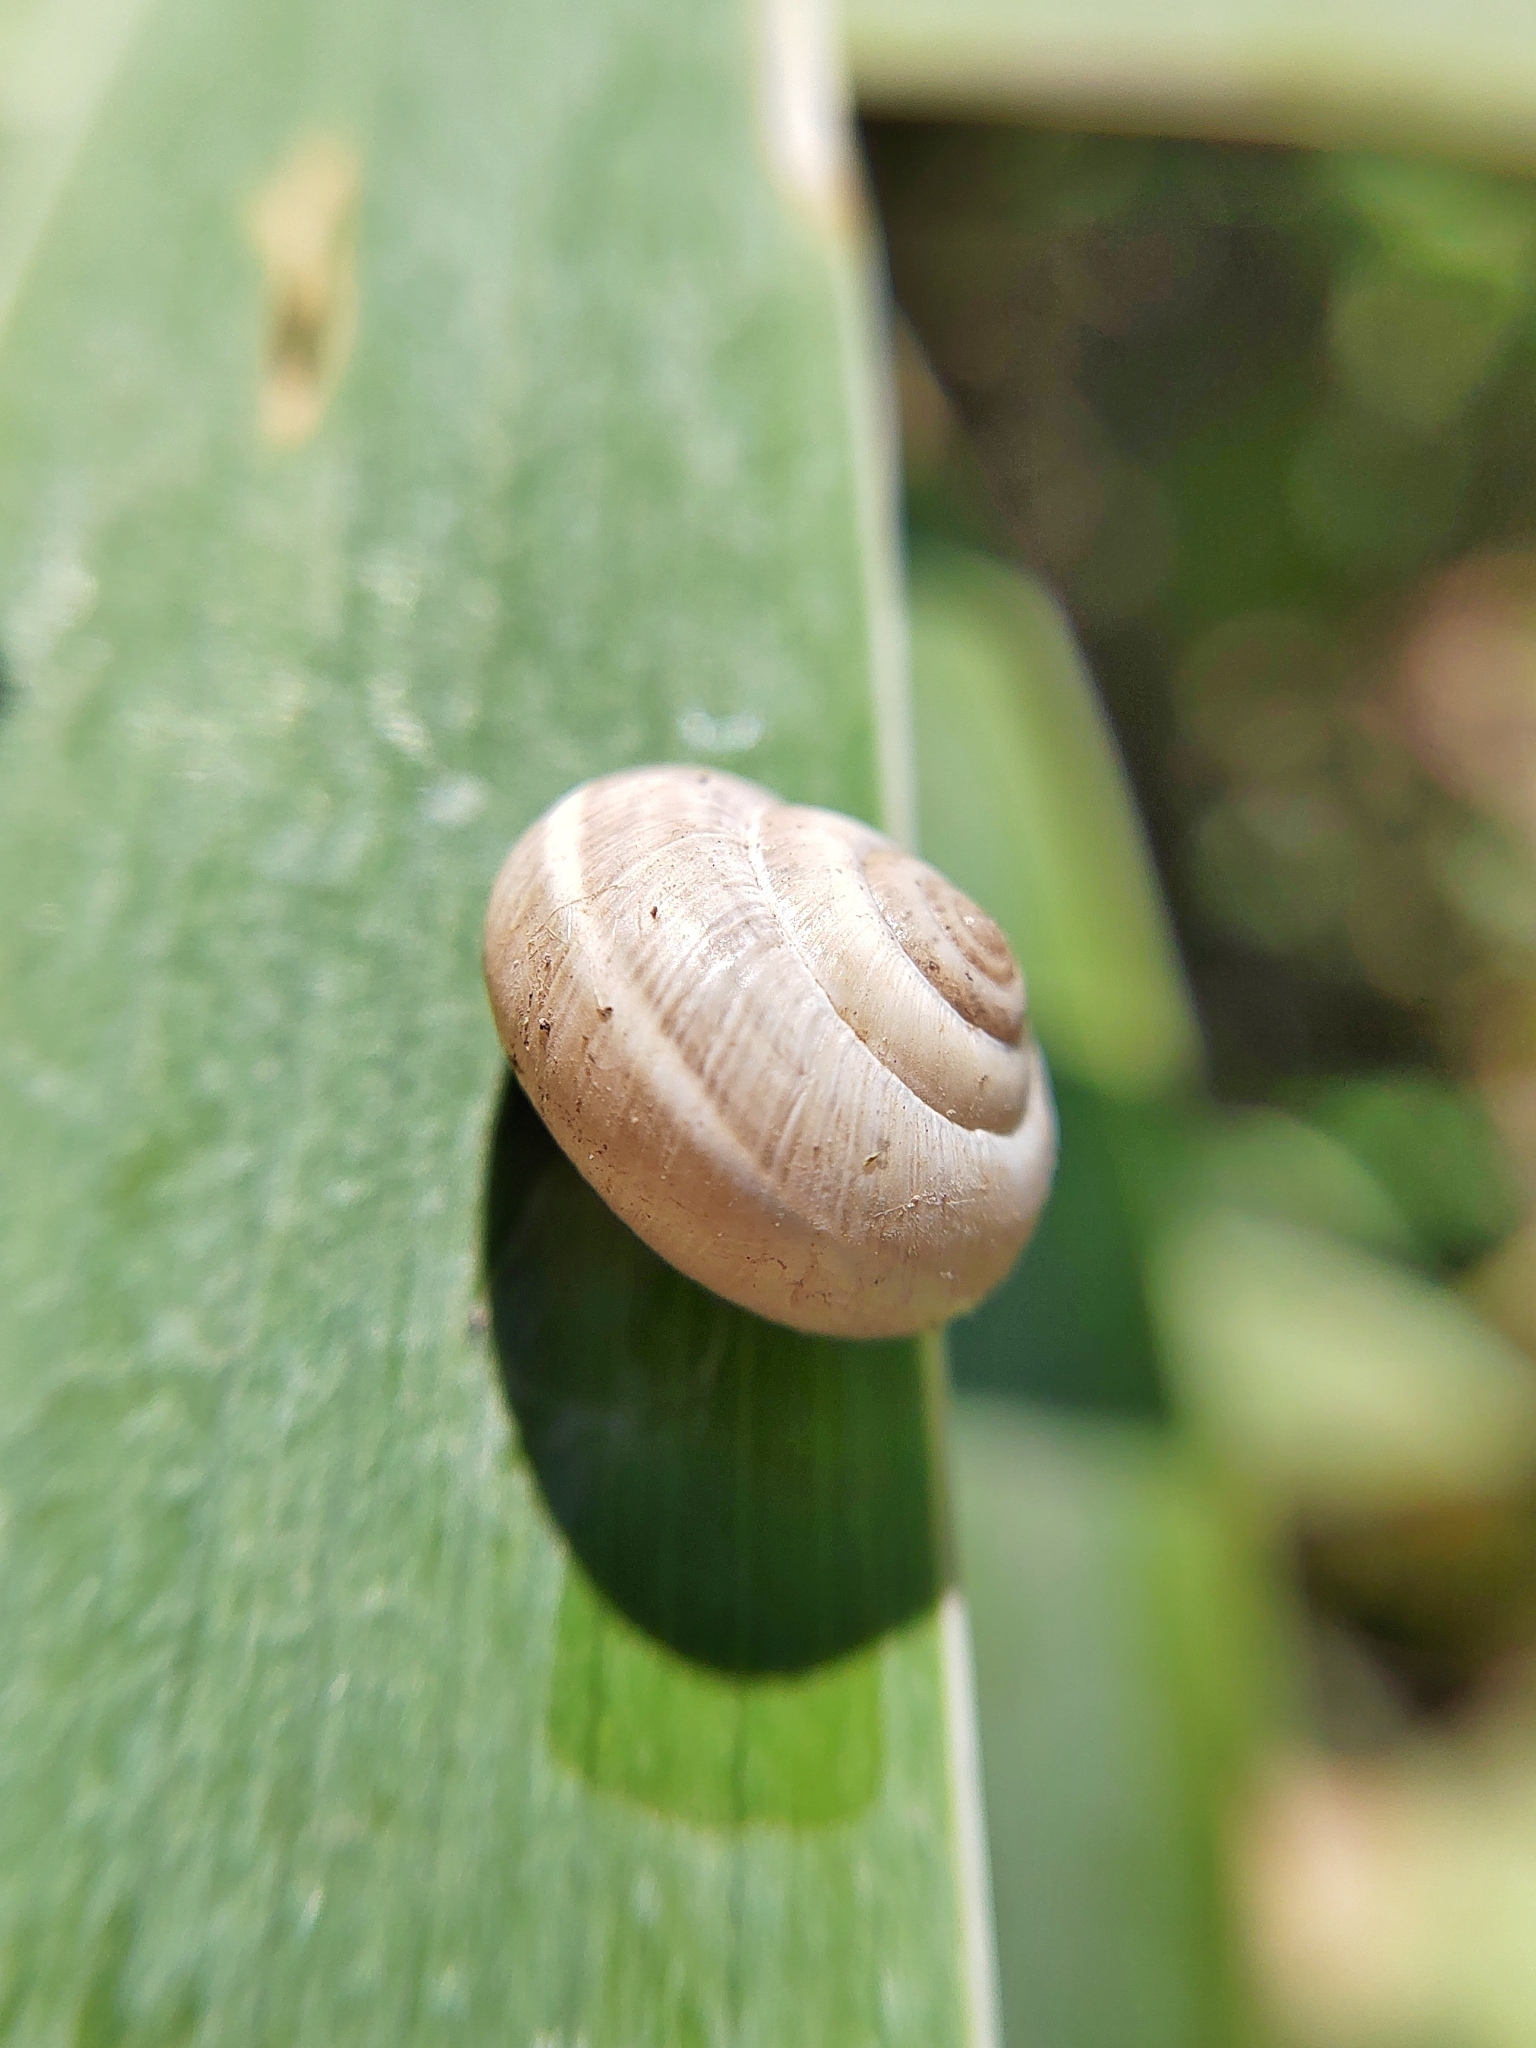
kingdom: Animalia
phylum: Mollusca
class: Gastropoda
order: Stylommatophora
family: Hygromiidae
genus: Harmozica
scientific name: Harmozica ravergiensis
